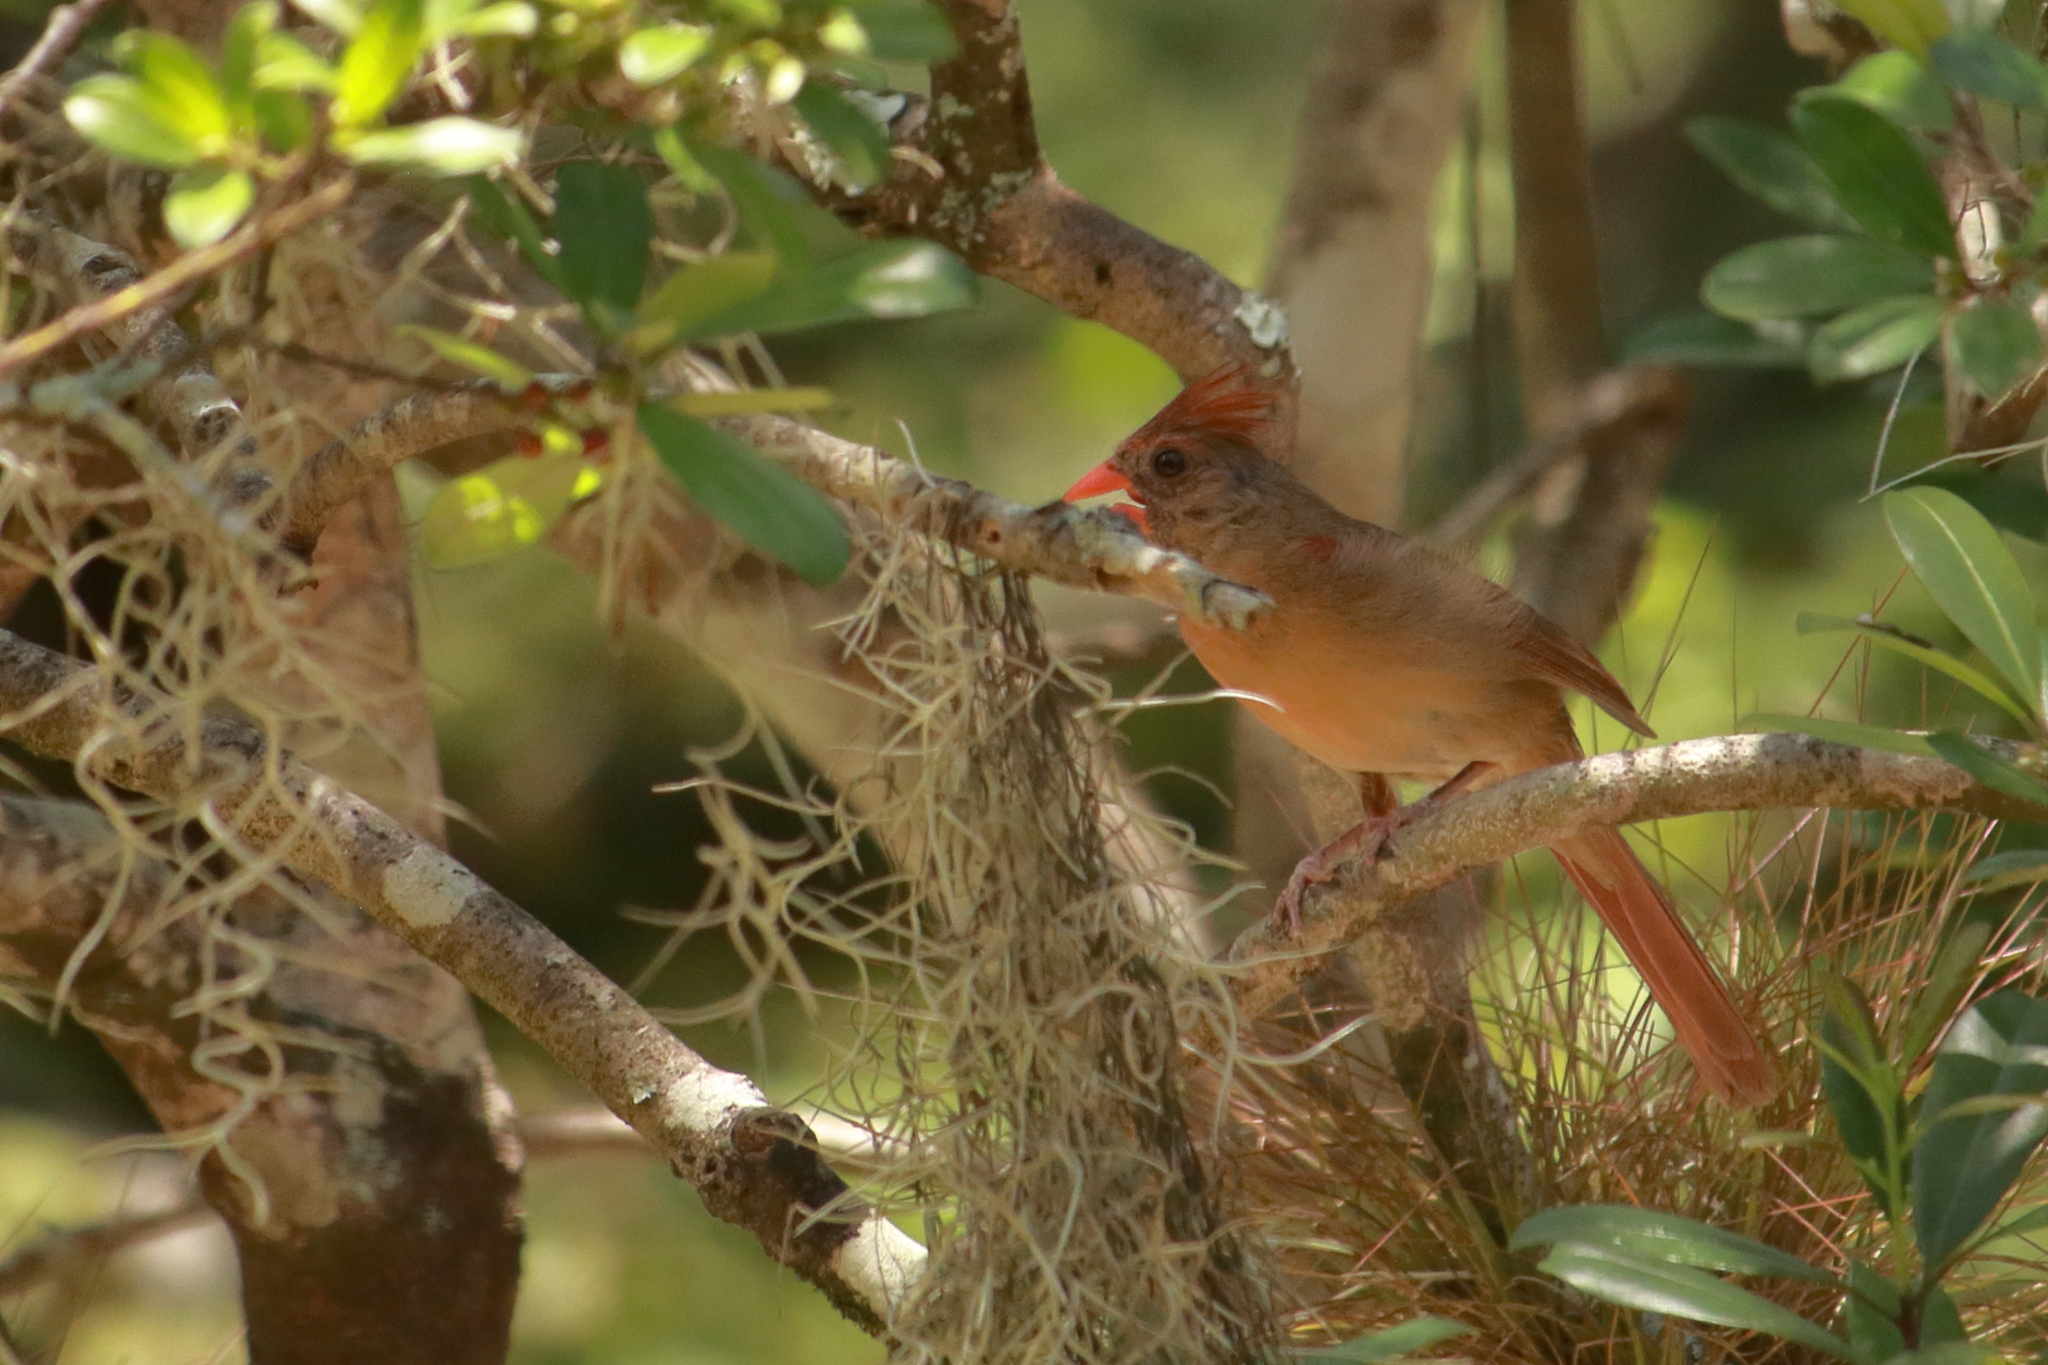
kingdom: Animalia
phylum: Chordata
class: Aves
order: Passeriformes
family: Cardinalidae
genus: Cardinalis
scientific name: Cardinalis cardinalis
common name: Northern cardinal
